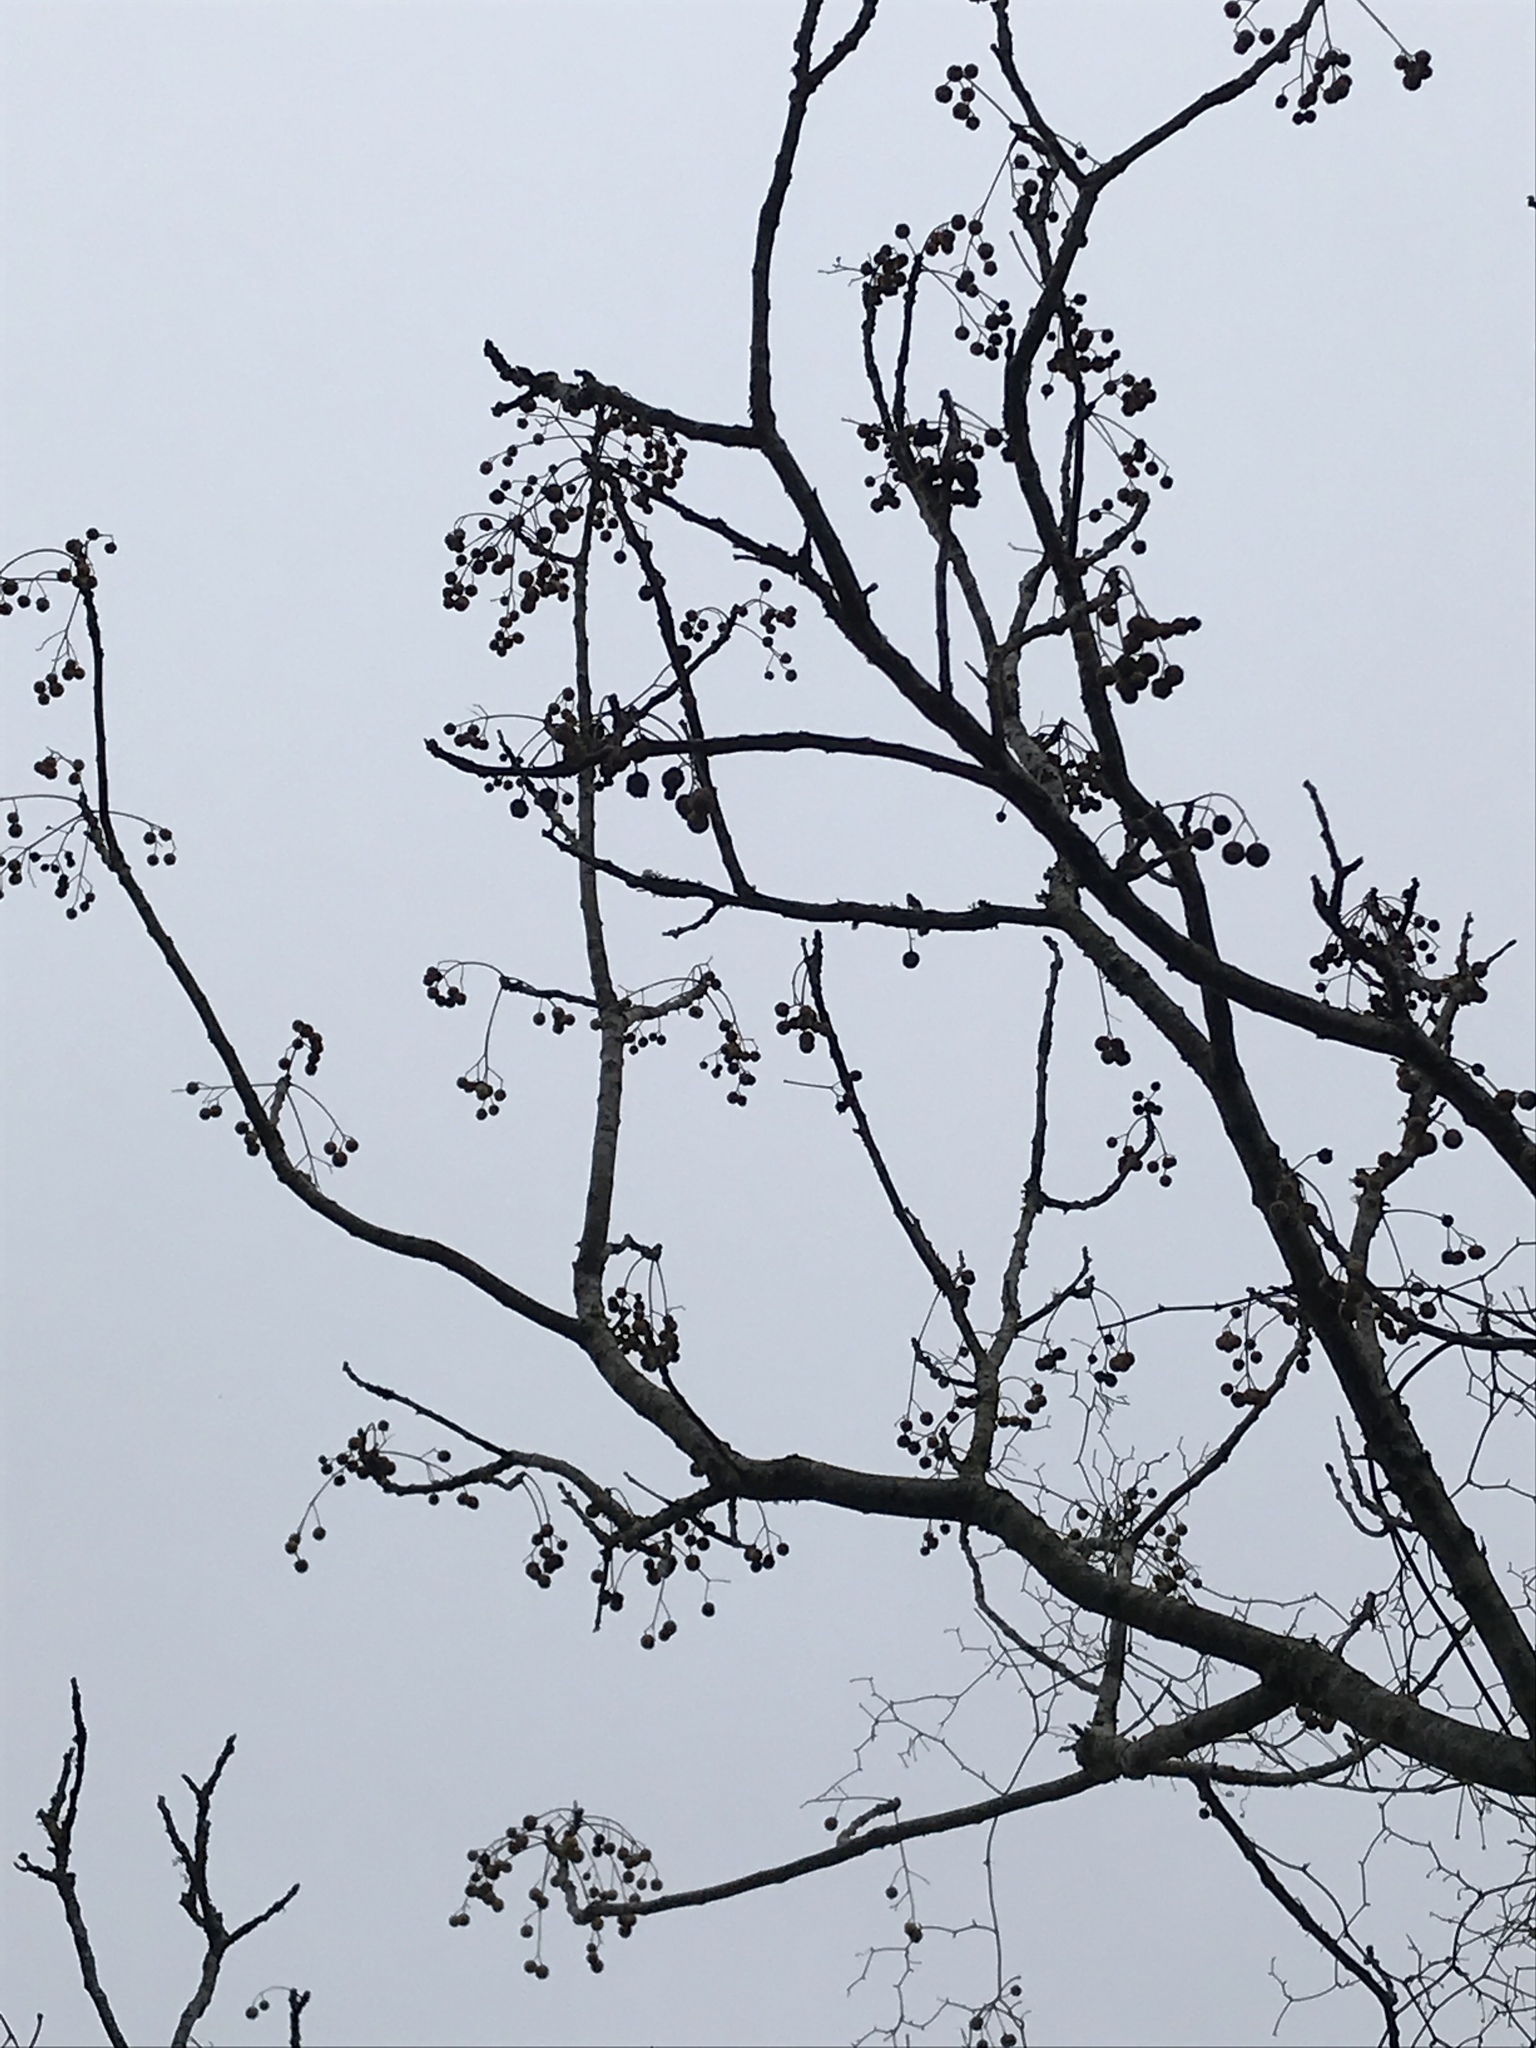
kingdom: Plantae
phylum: Tracheophyta
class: Magnoliopsida
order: Sapindales
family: Meliaceae
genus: Melia
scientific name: Melia azedarach
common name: Chinaberrytree
